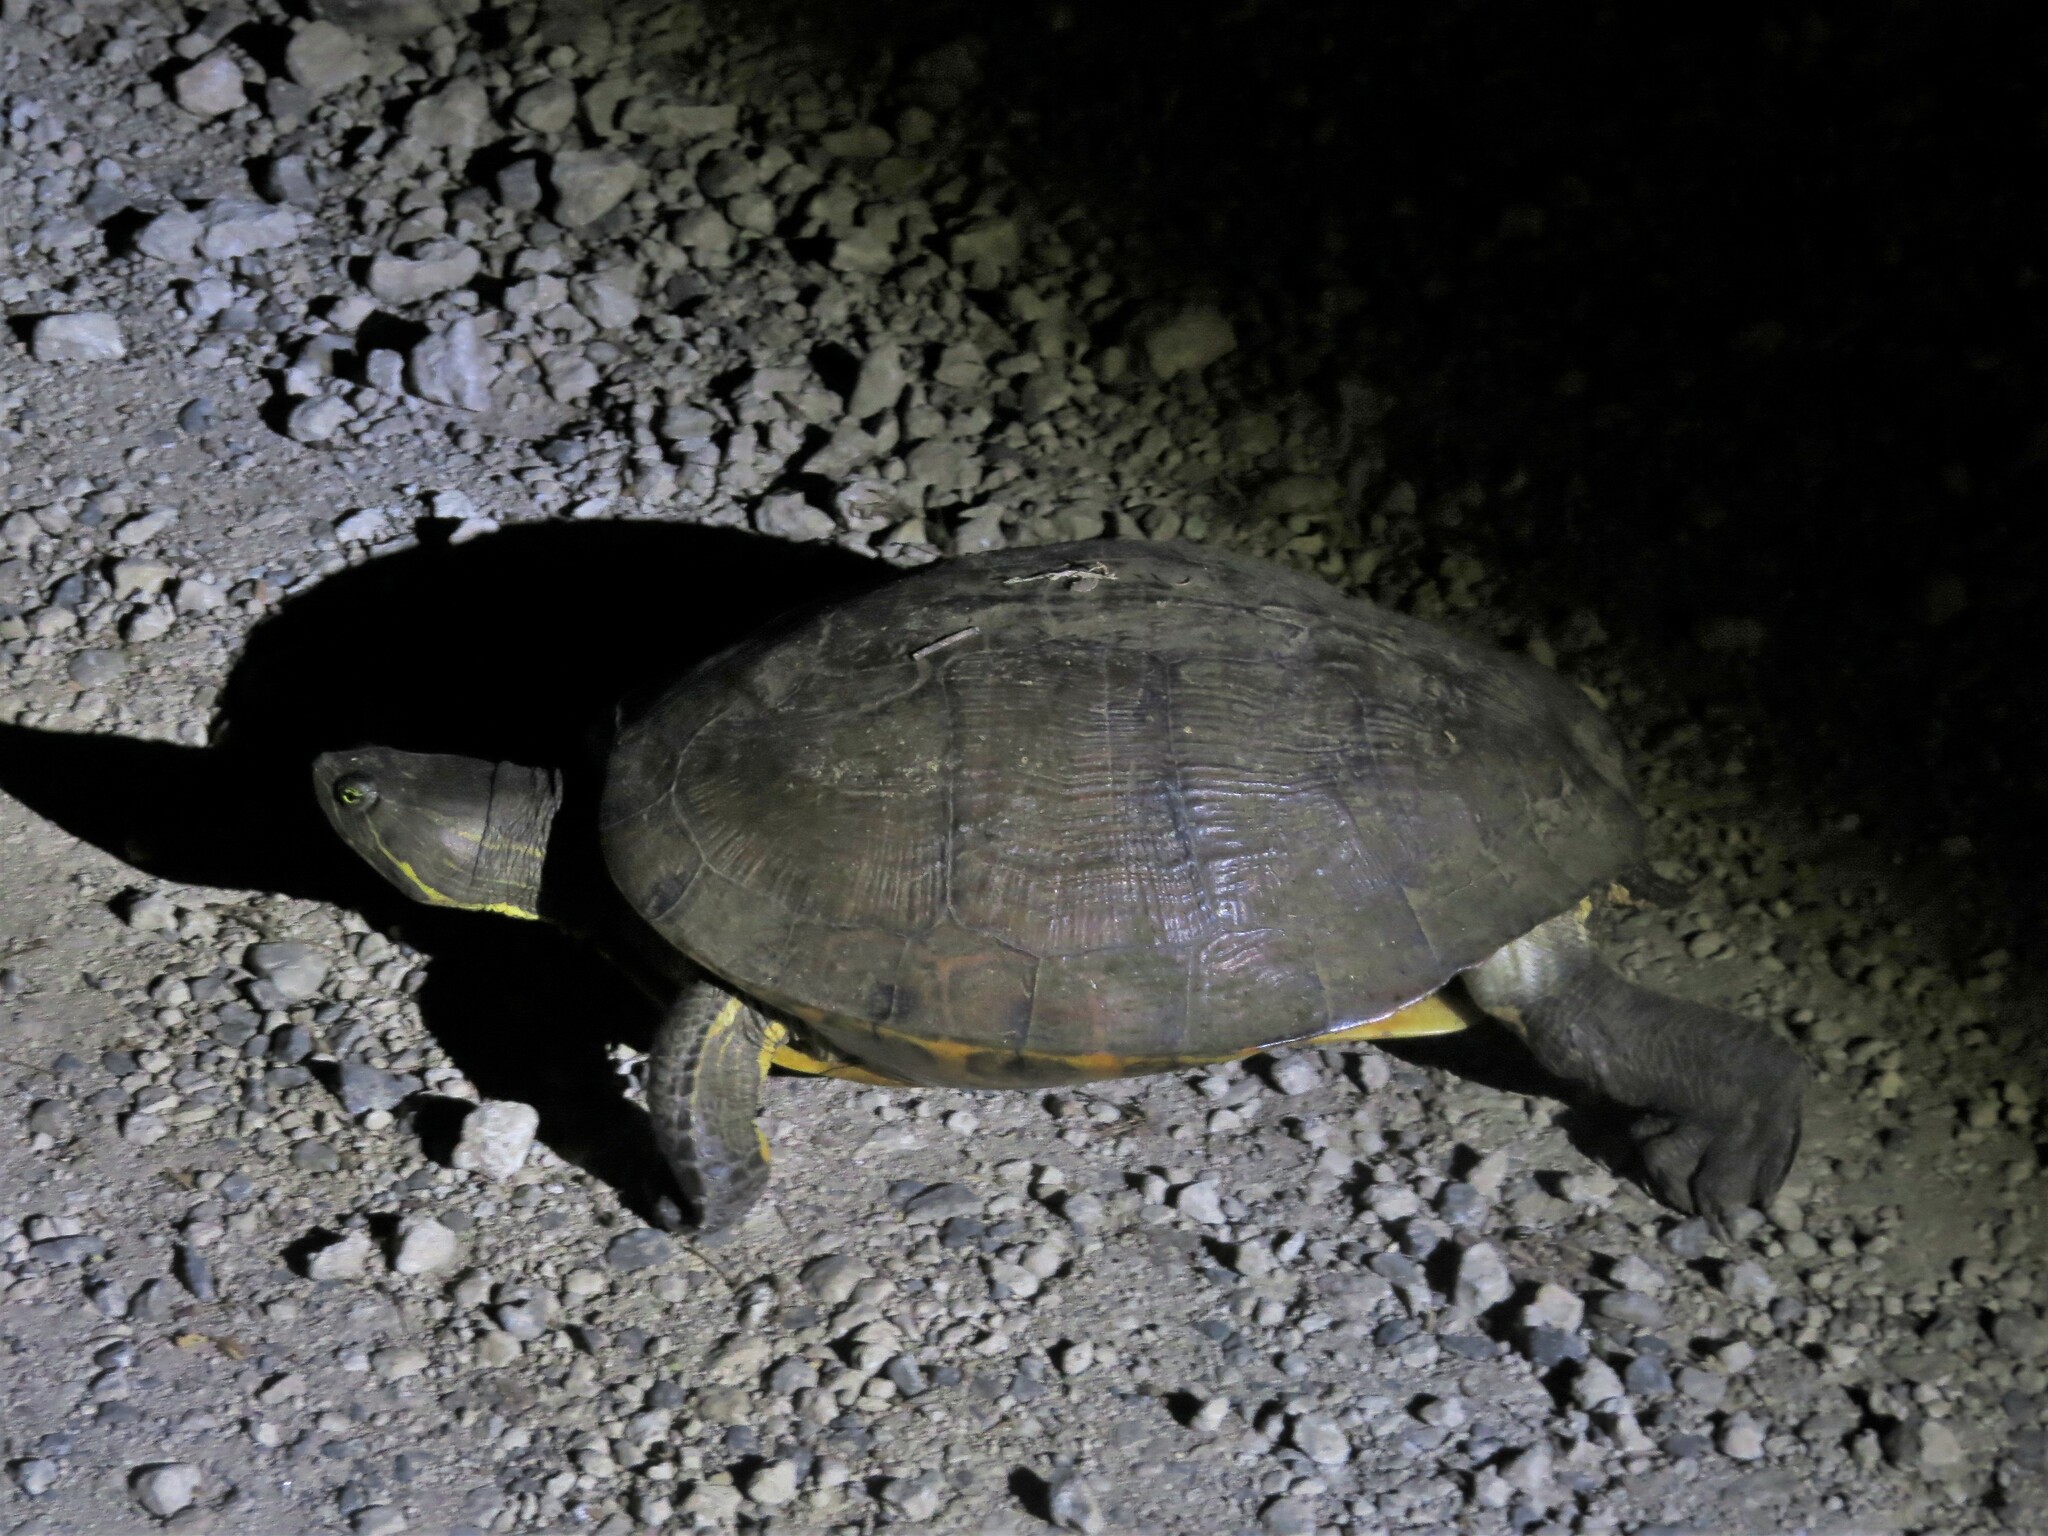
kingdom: Animalia
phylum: Chordata
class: Testudines
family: Emydidae
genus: Trachemys
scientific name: Trachemys venusta
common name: Mesoamerican slider
